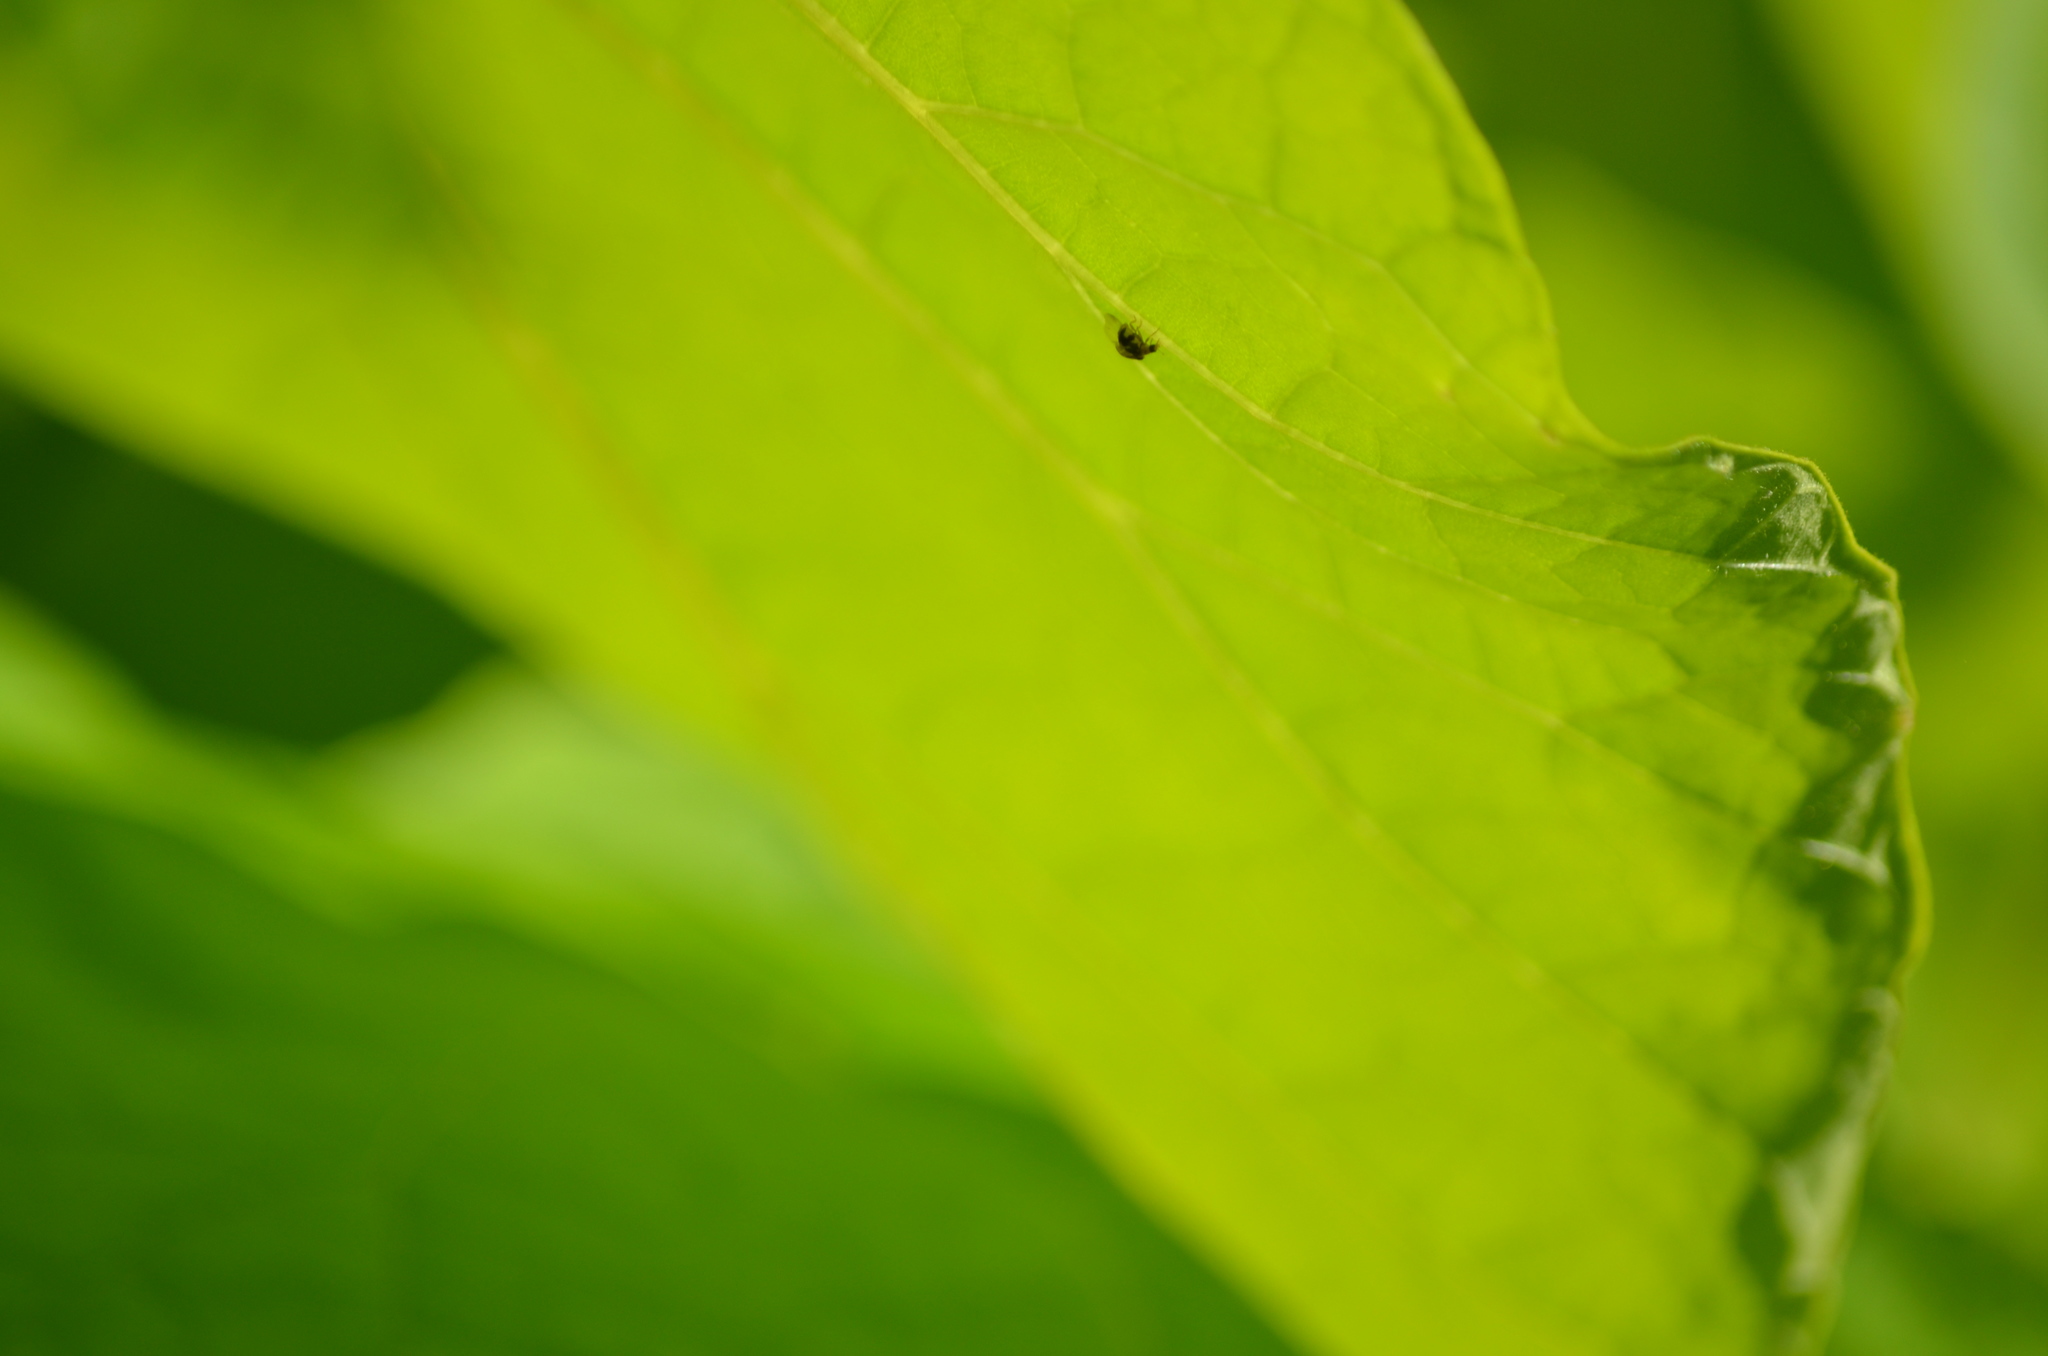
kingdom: Animalia
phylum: Arthropoda
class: Insecta
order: Coleoptera
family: Coccinellidae
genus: Psyllobora
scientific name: Psyllobora vigintimaculata
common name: Ladybird beetle
